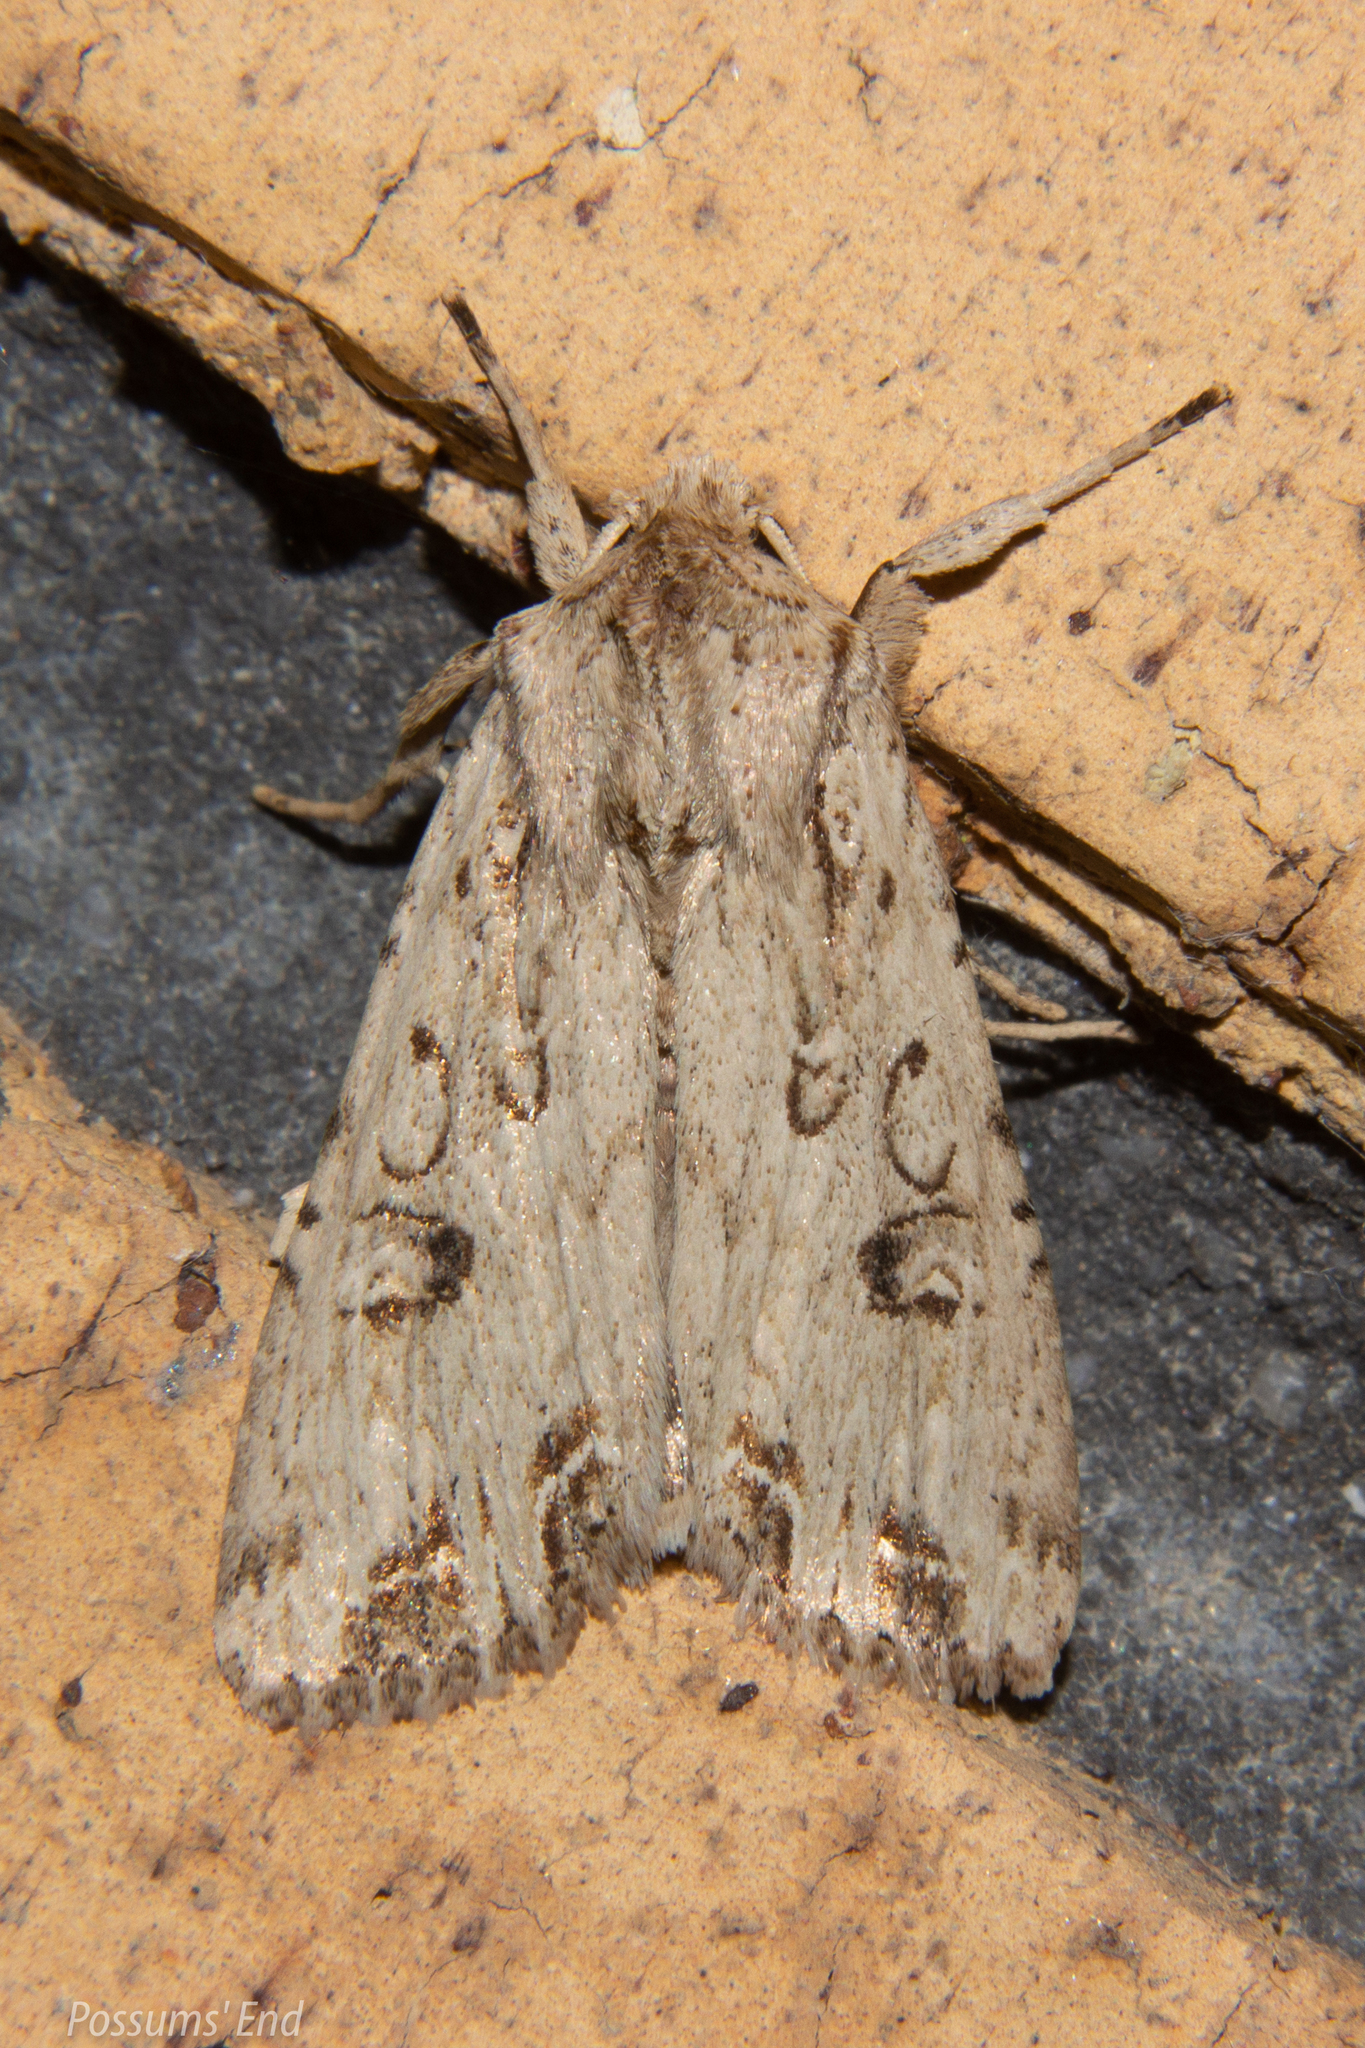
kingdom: Animalia
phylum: Arthropoda
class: Insecta
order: Lepidoptera
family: Noctuidae
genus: Ichneutica
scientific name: Ichneutica lignana
